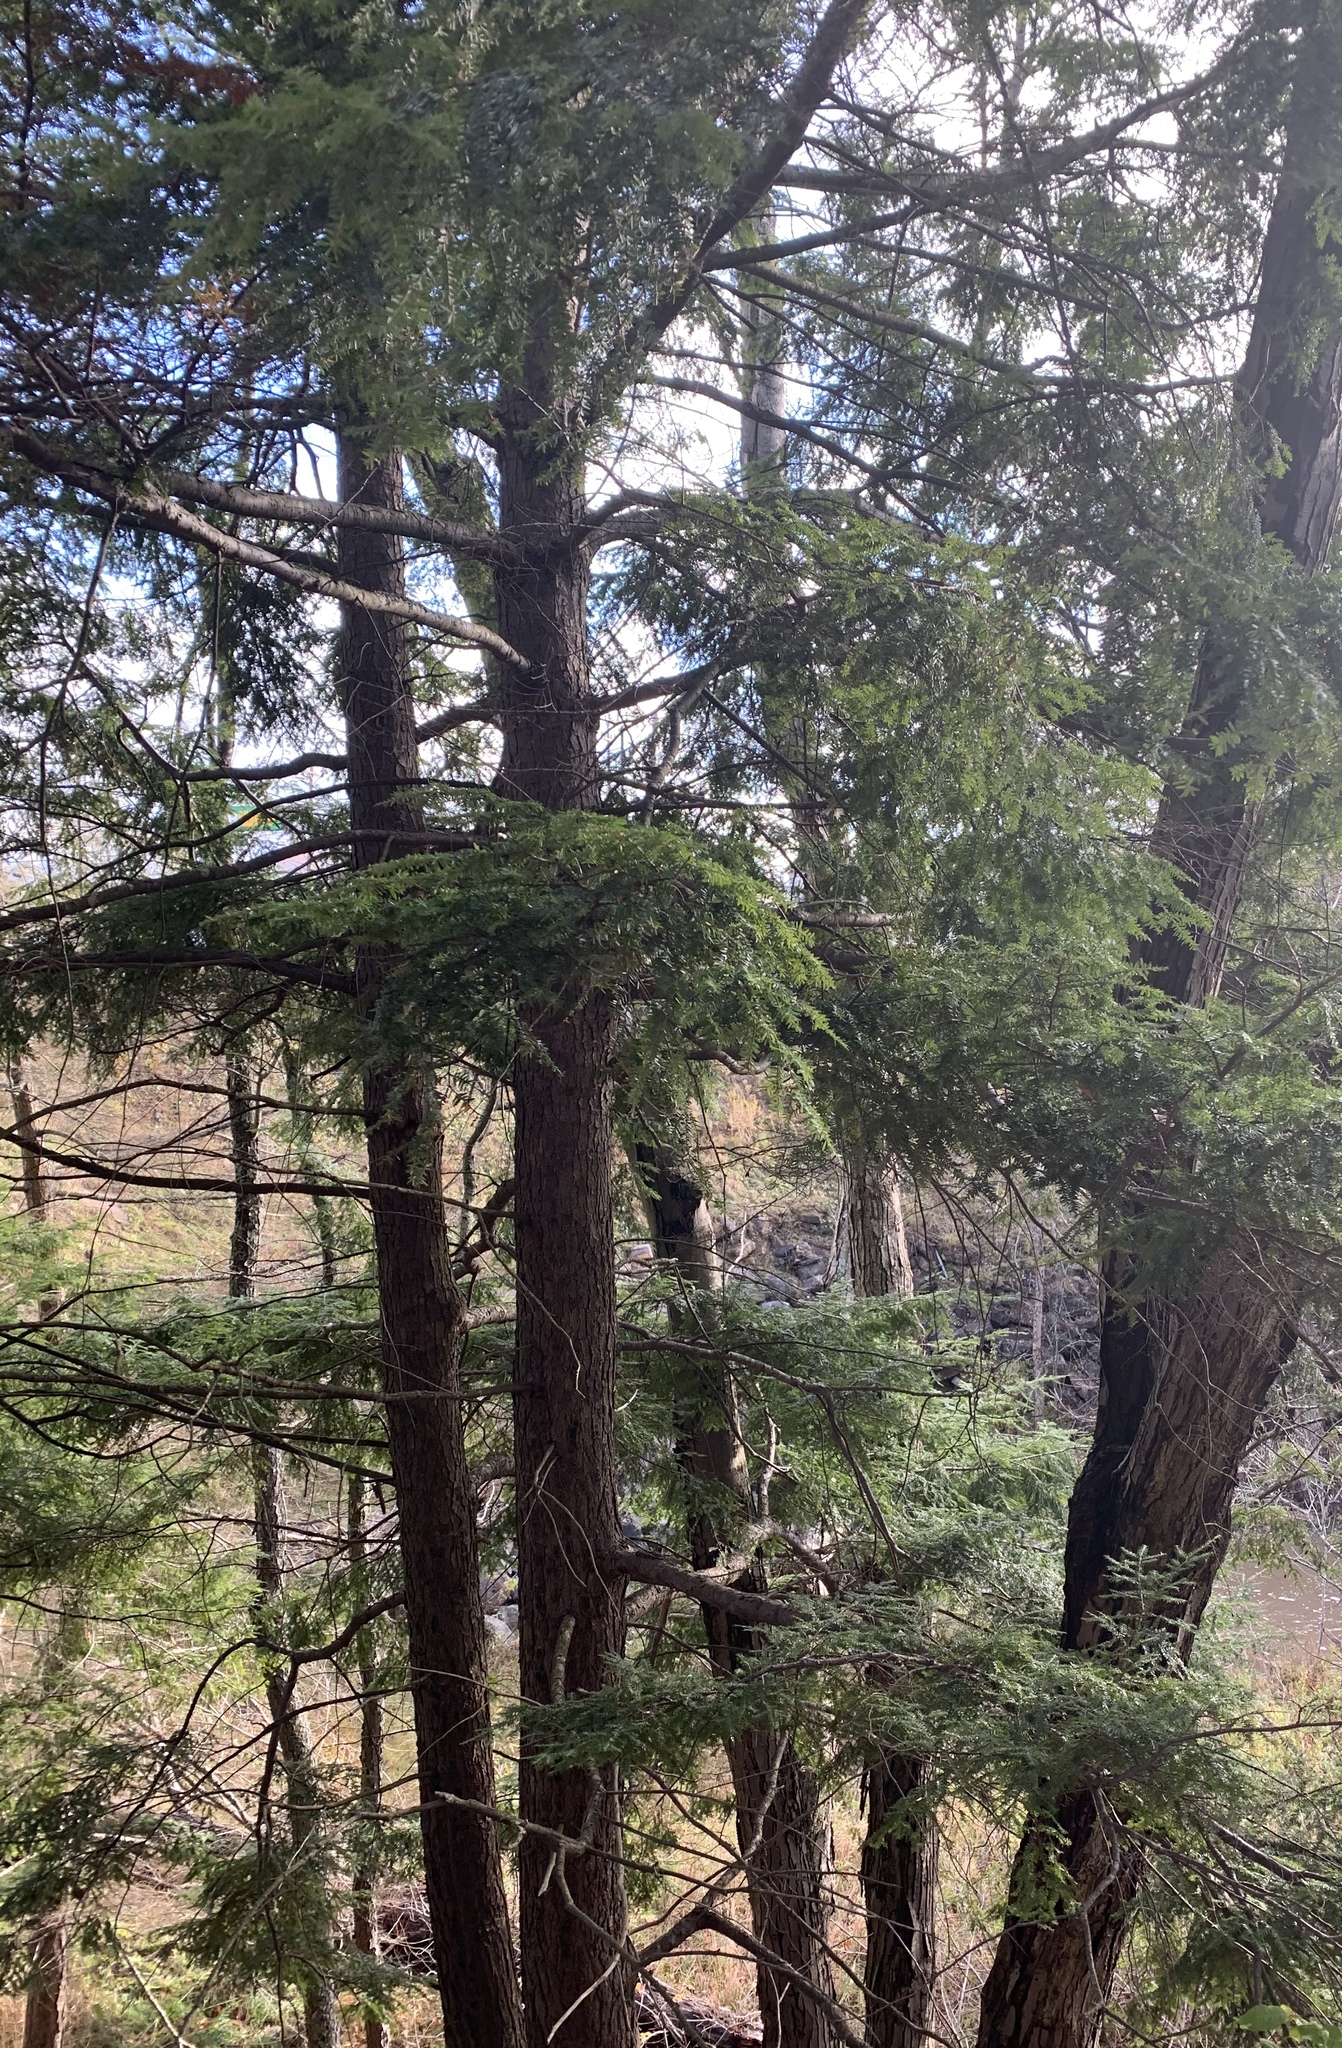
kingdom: Plantae
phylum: Tracheophyta
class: Pinopsida
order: Pinales
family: Pinaceae
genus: Tsuga
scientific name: Tsuga canadensis
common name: Eastern hemlock
